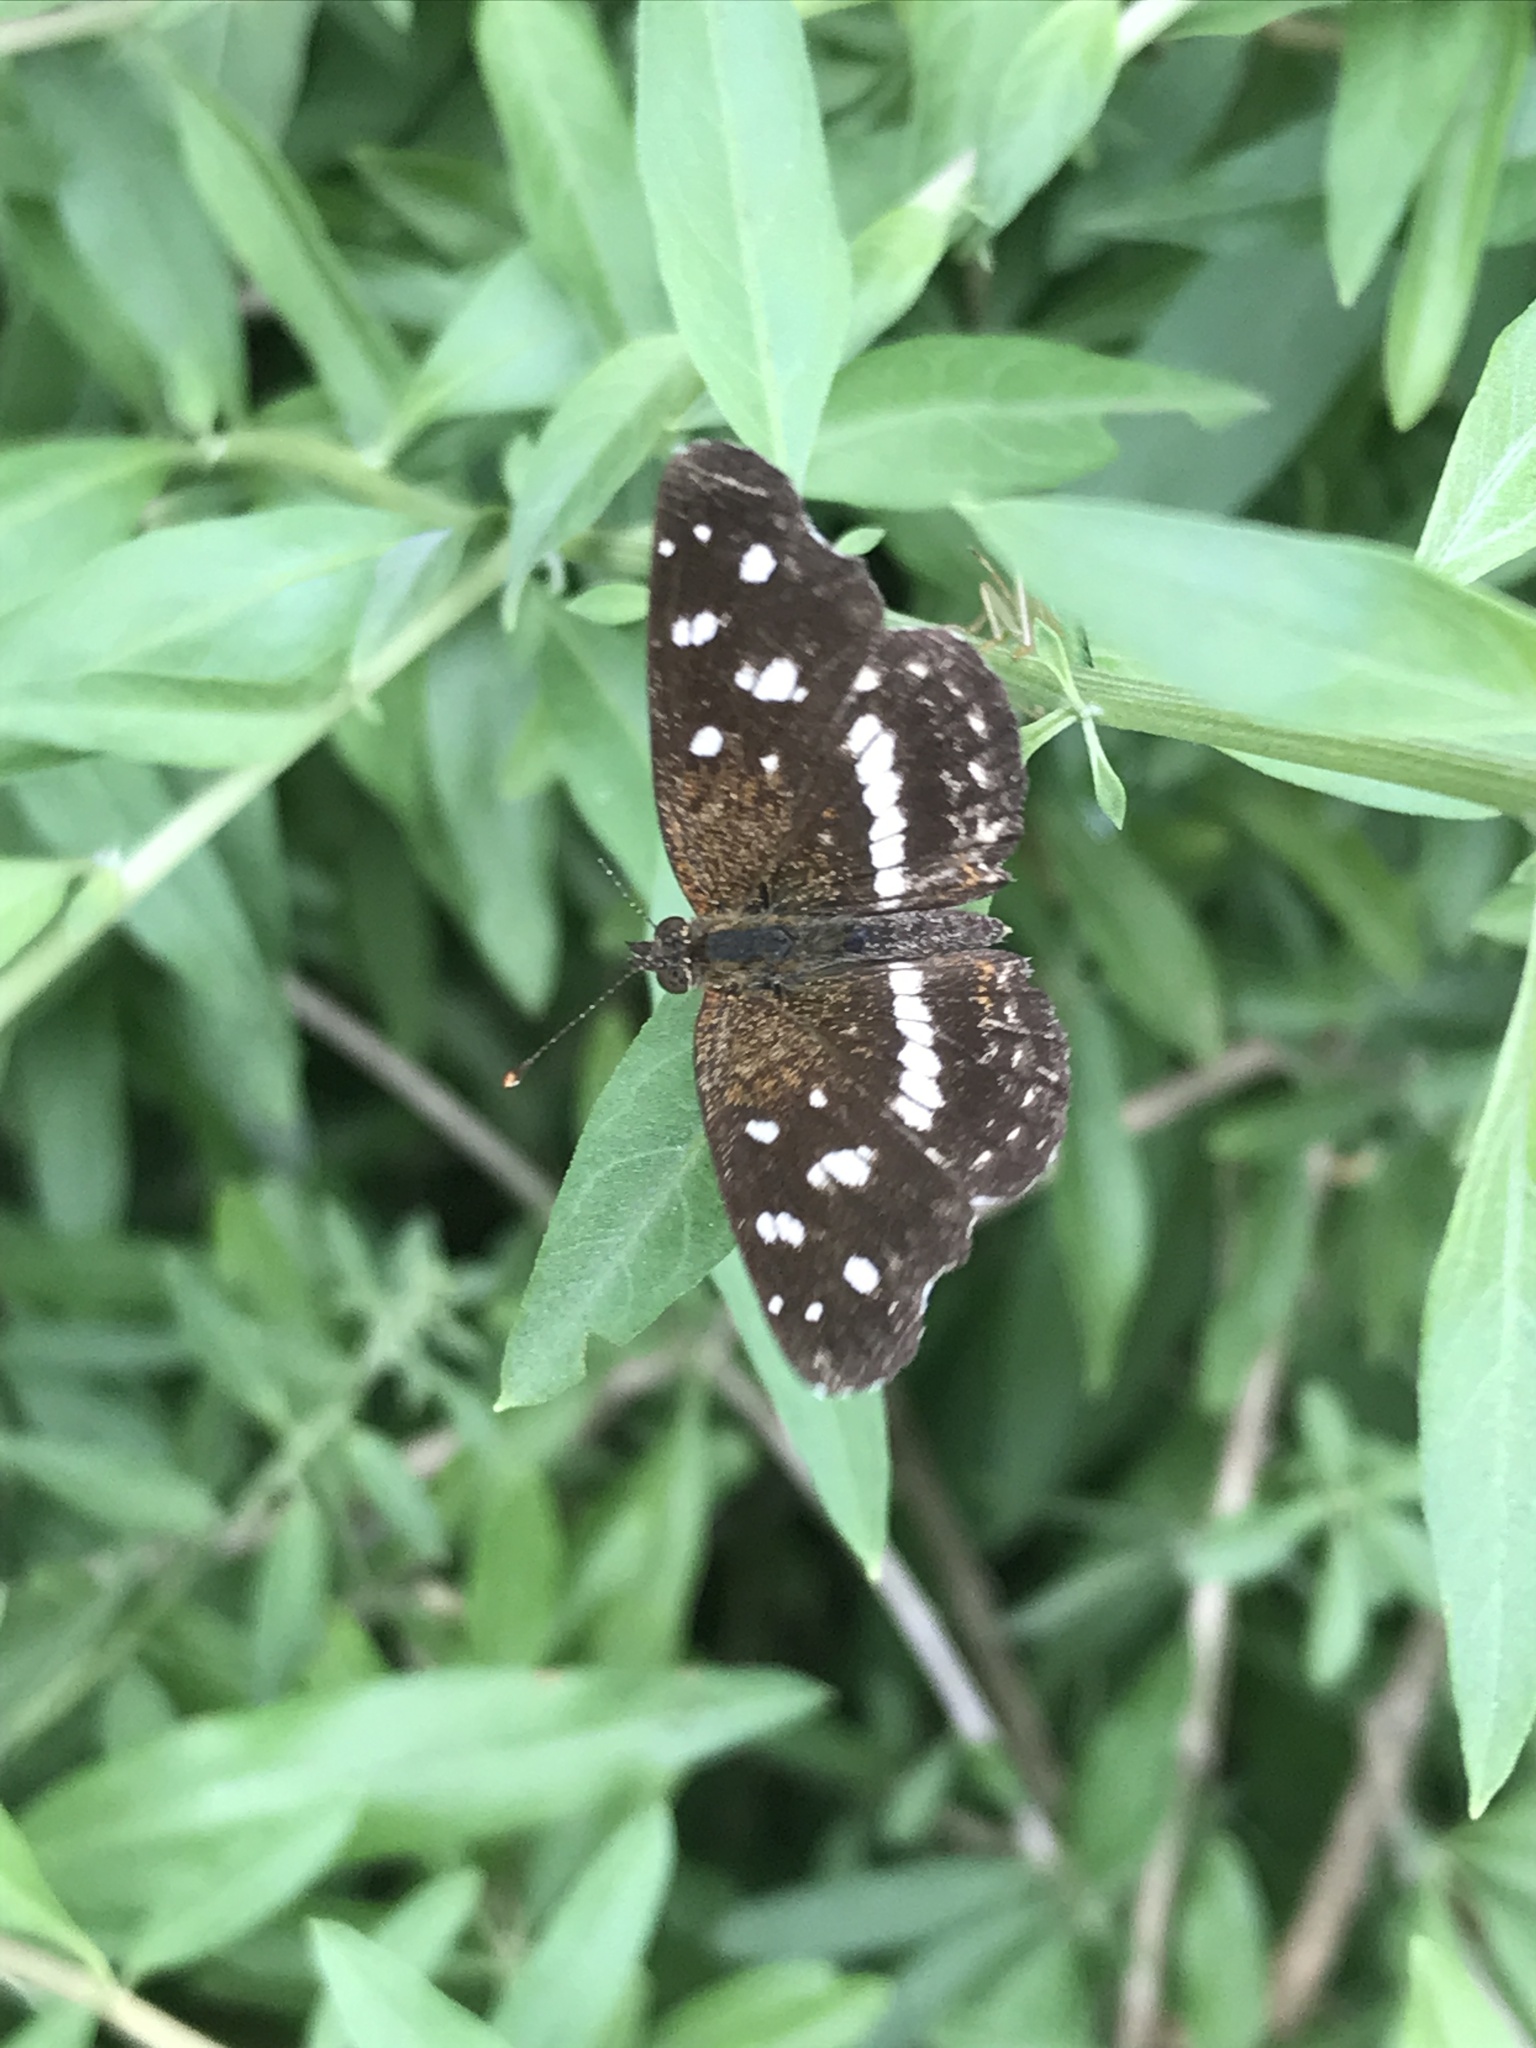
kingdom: Animalia
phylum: Arthropoda
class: Insecta
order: Lepidoptera
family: Nymphalidae
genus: Ortilia
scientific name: Ortilia ithra
